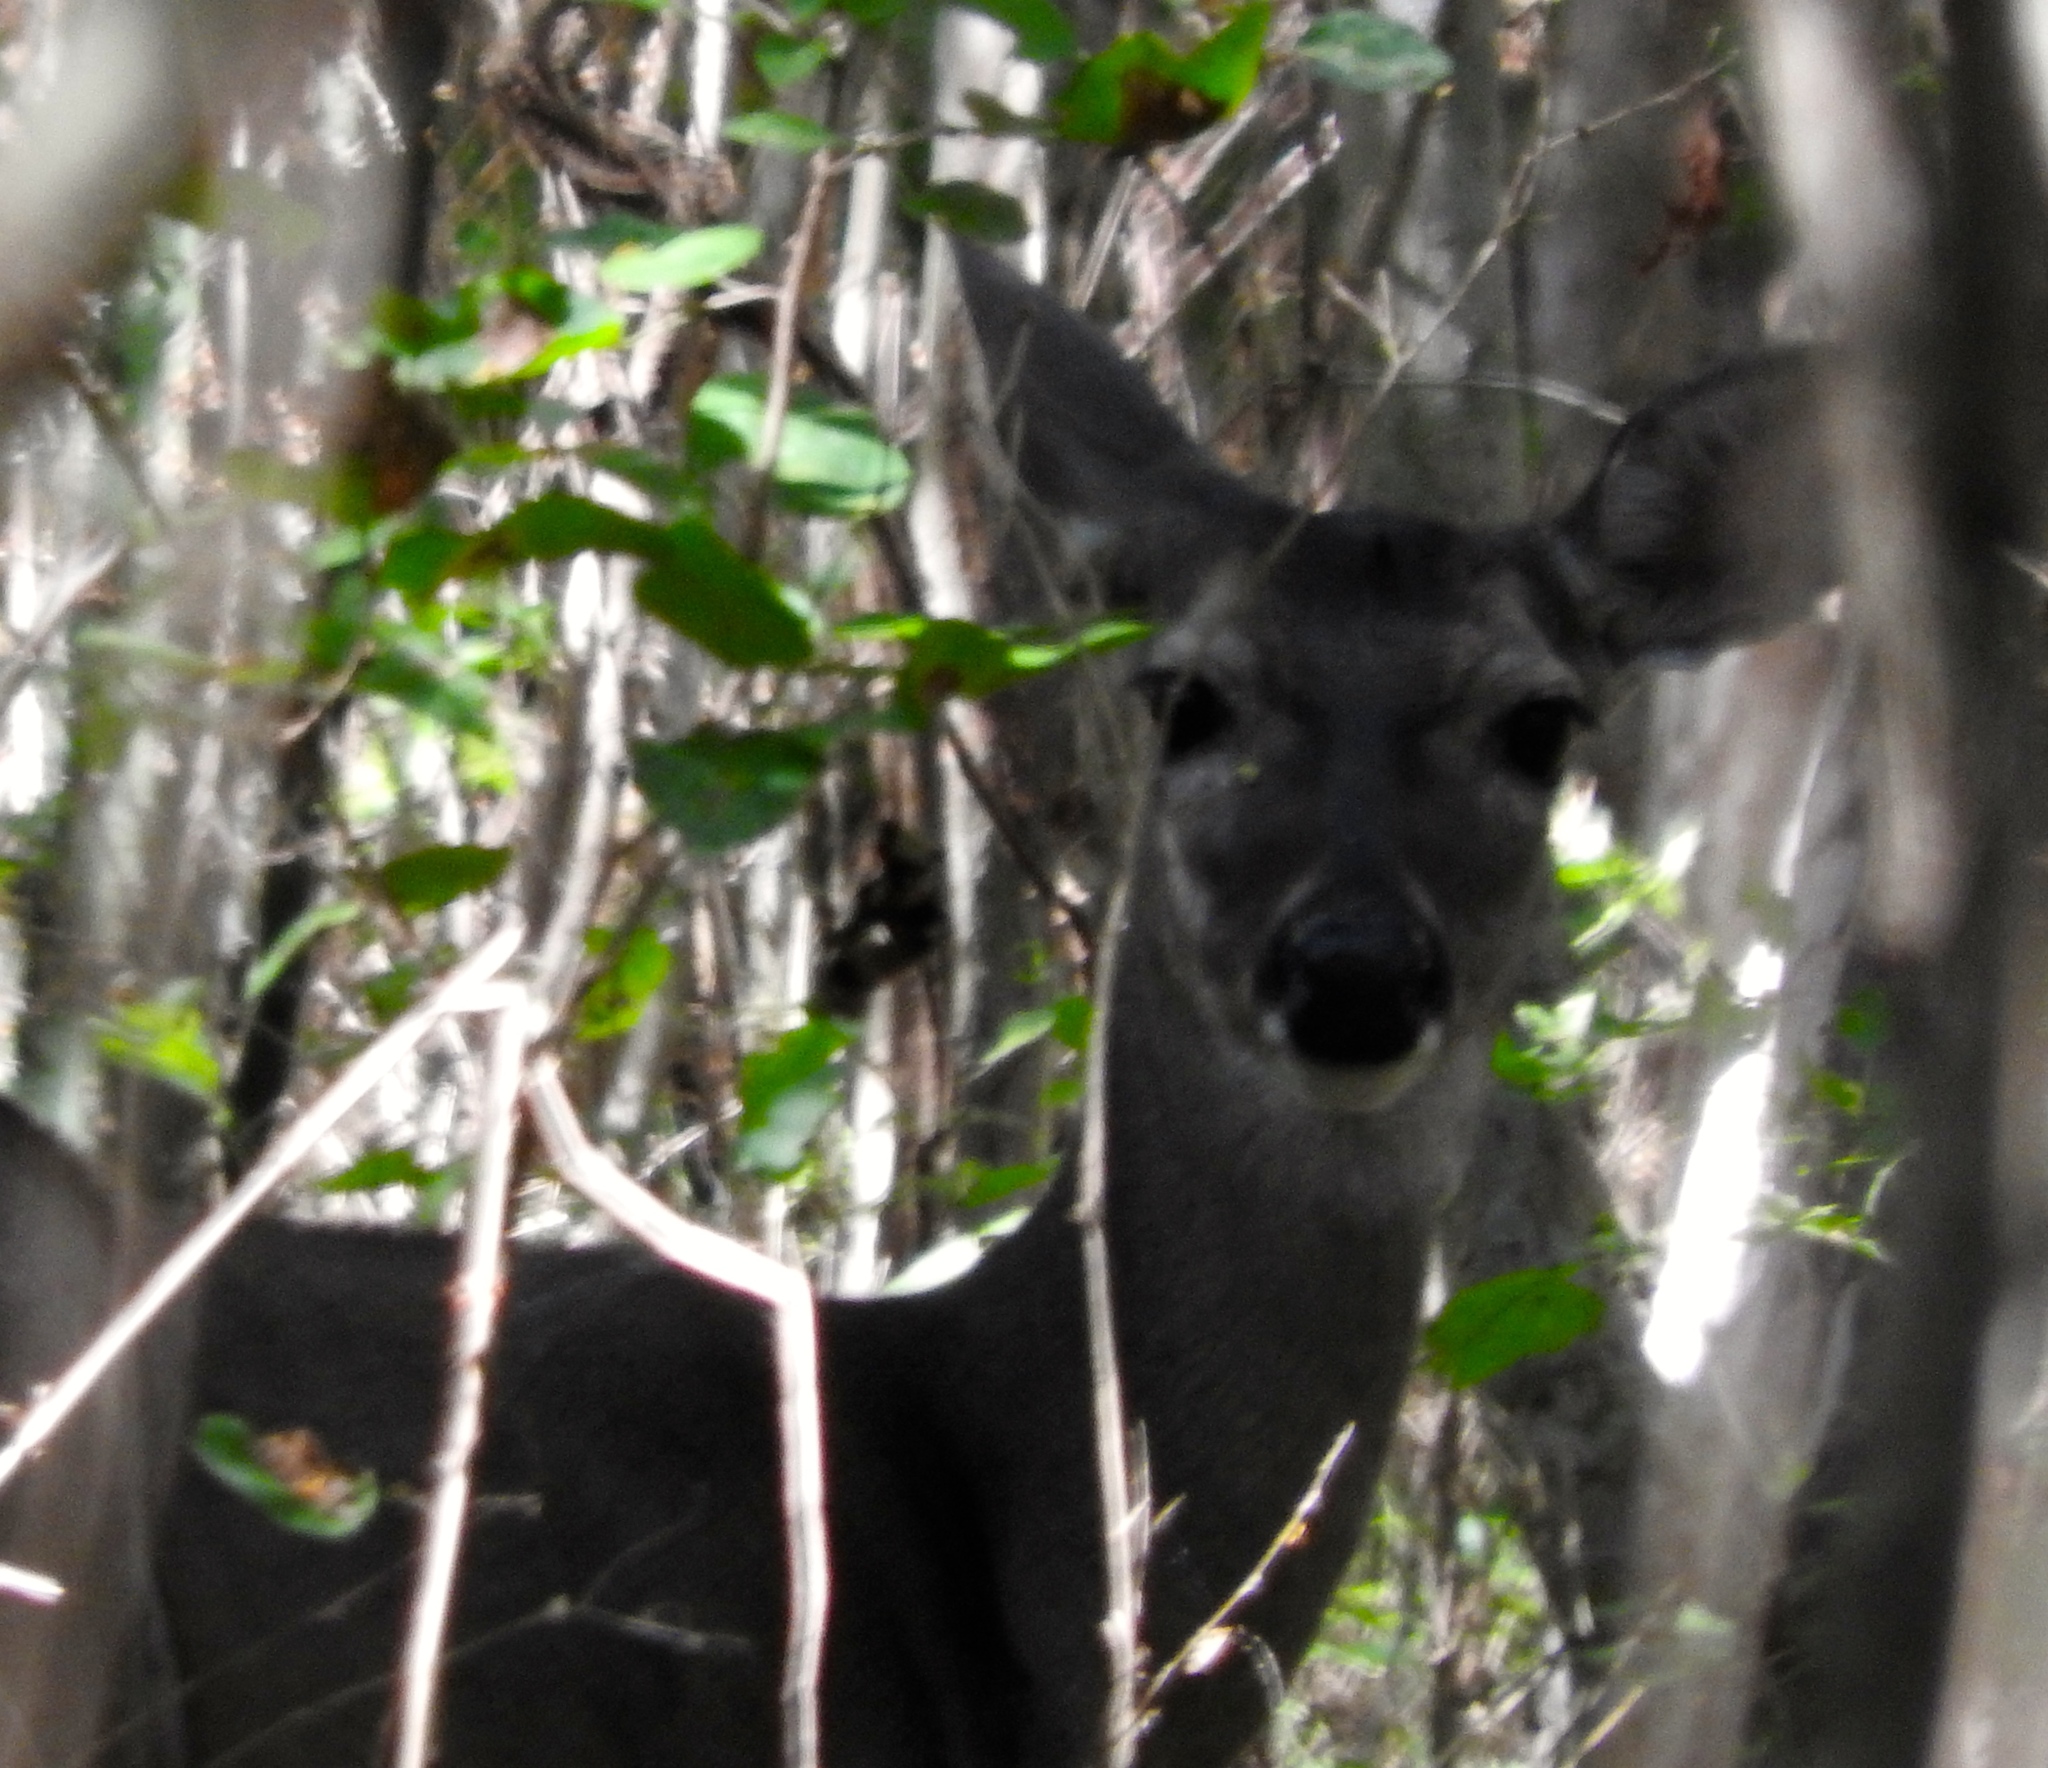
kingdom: Animalia
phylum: Chordata
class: Mammalia
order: Artiodactyla
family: Cervidae
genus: Odocoileus
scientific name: Odocoileus virginianus
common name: White-tailed deer
